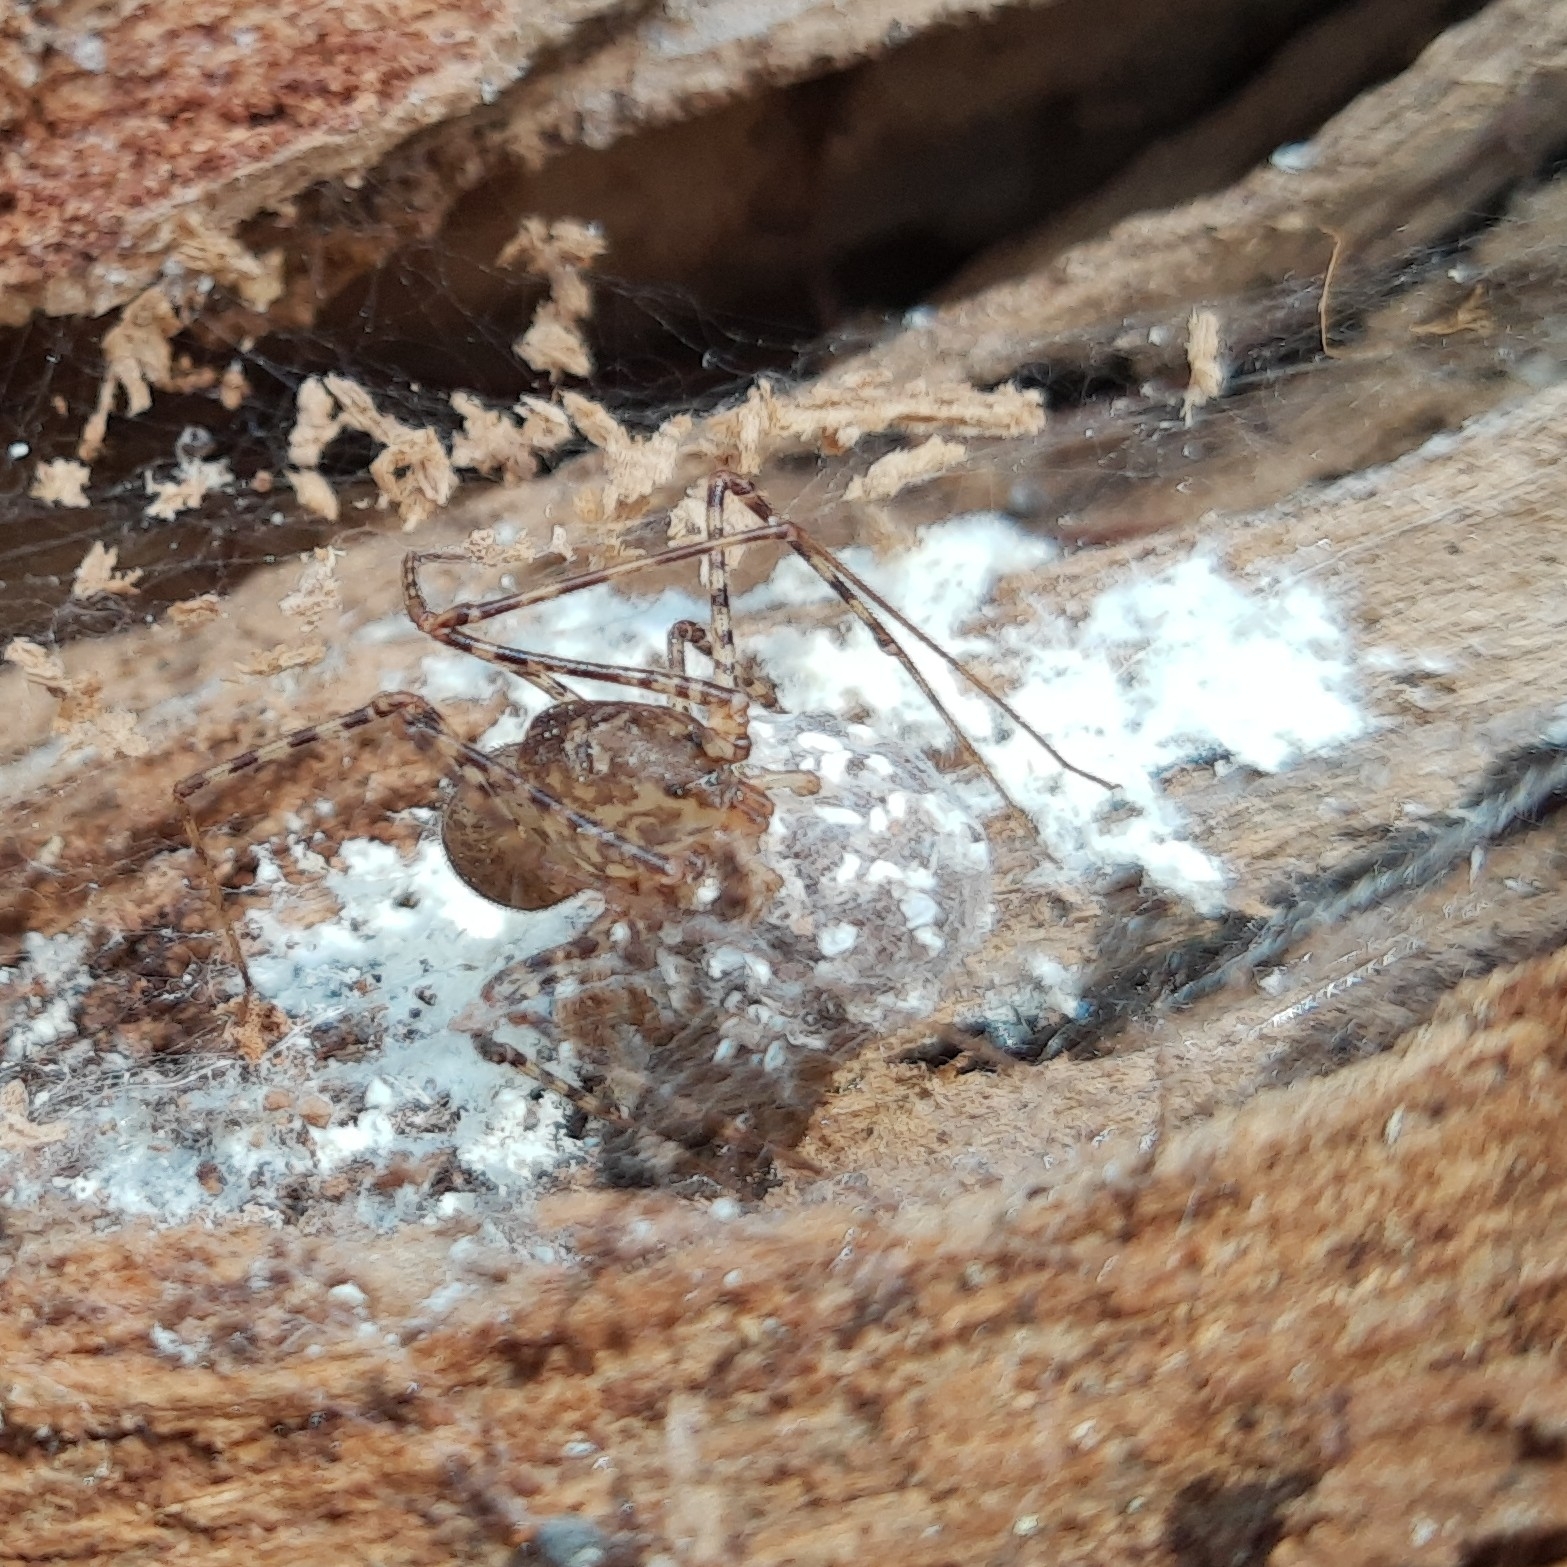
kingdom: Animalia
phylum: Arthropoda
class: Arachnida
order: Araneae
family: Scytodidae
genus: Scytodes
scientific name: Scytodes globula
